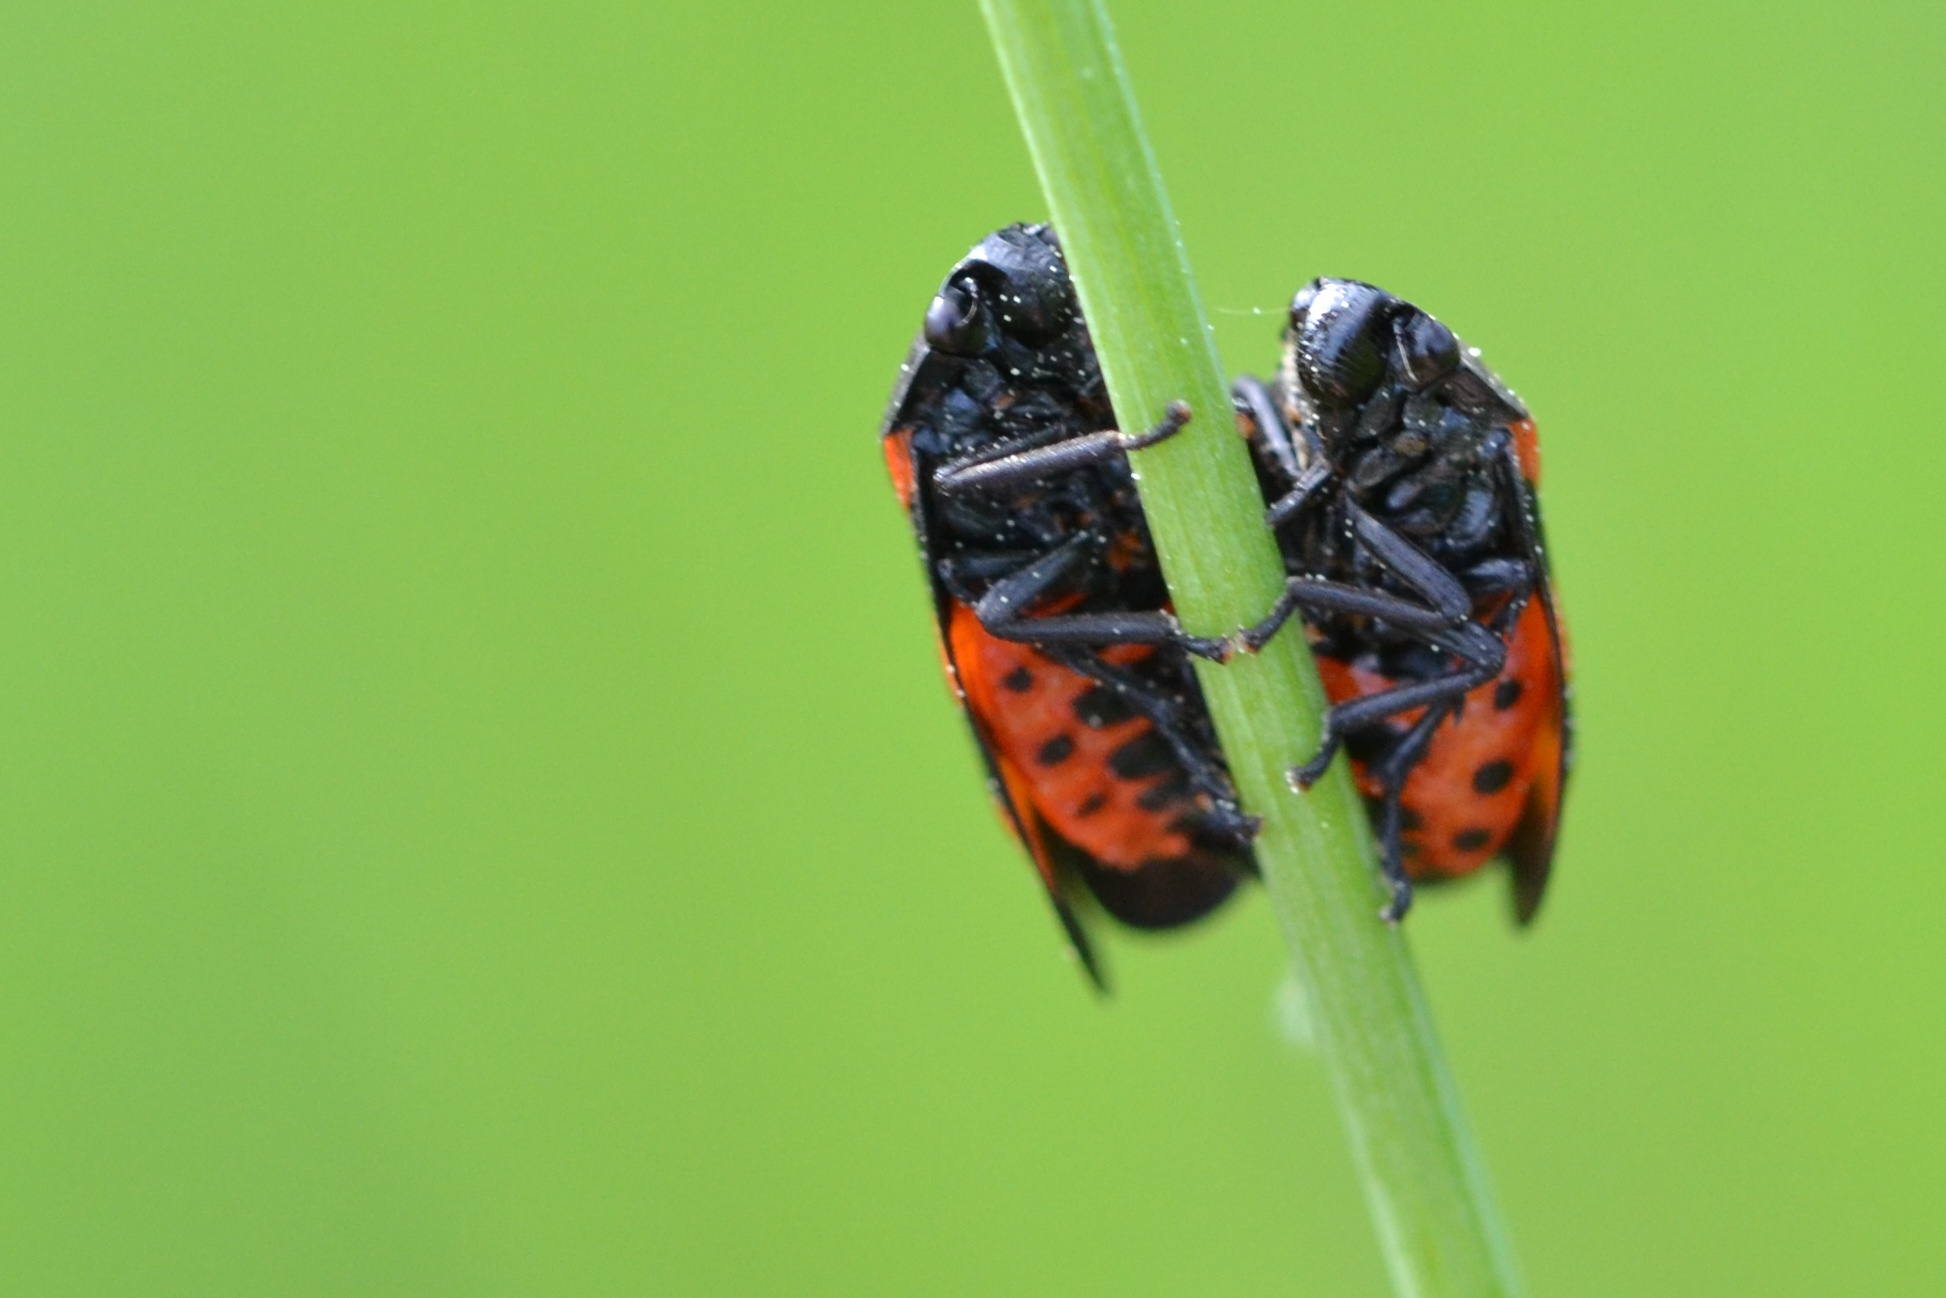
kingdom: Animalia
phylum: Arthropoda
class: Insecta
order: Hemiptera
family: Cercopidae
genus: Cercopis
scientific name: Cercopis sanguinolenta
